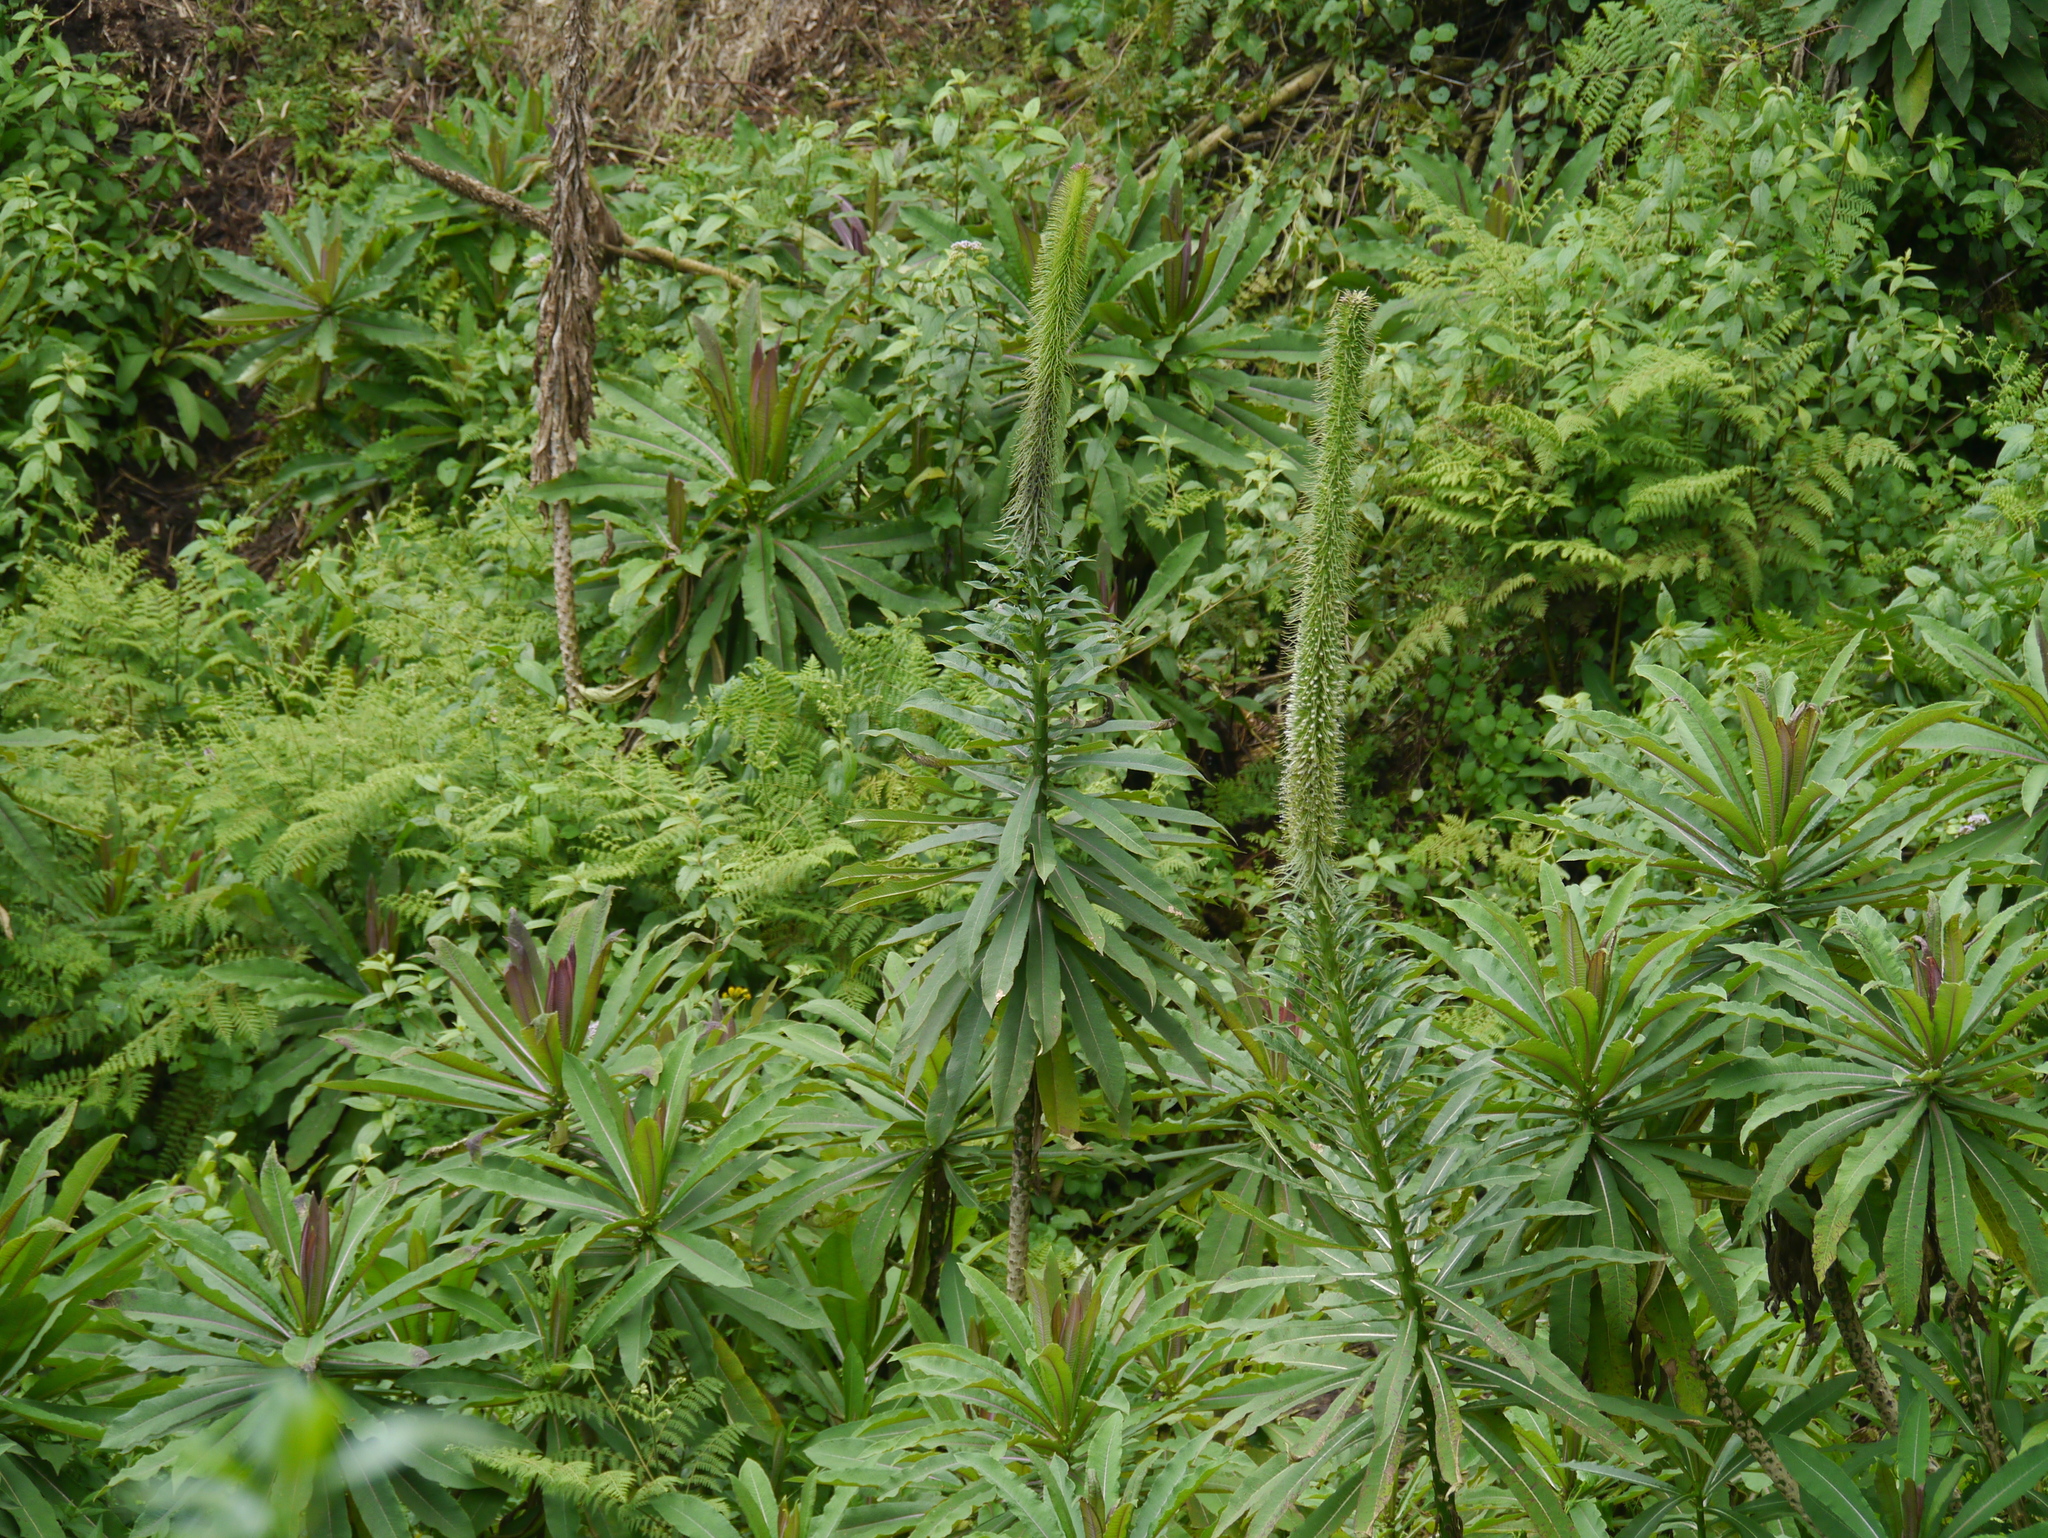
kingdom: Plantae
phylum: Tracheophyta
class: Magnoliopsida
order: Asterales
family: Campanulaceae
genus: Lobelia
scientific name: Lobelia giberroa
